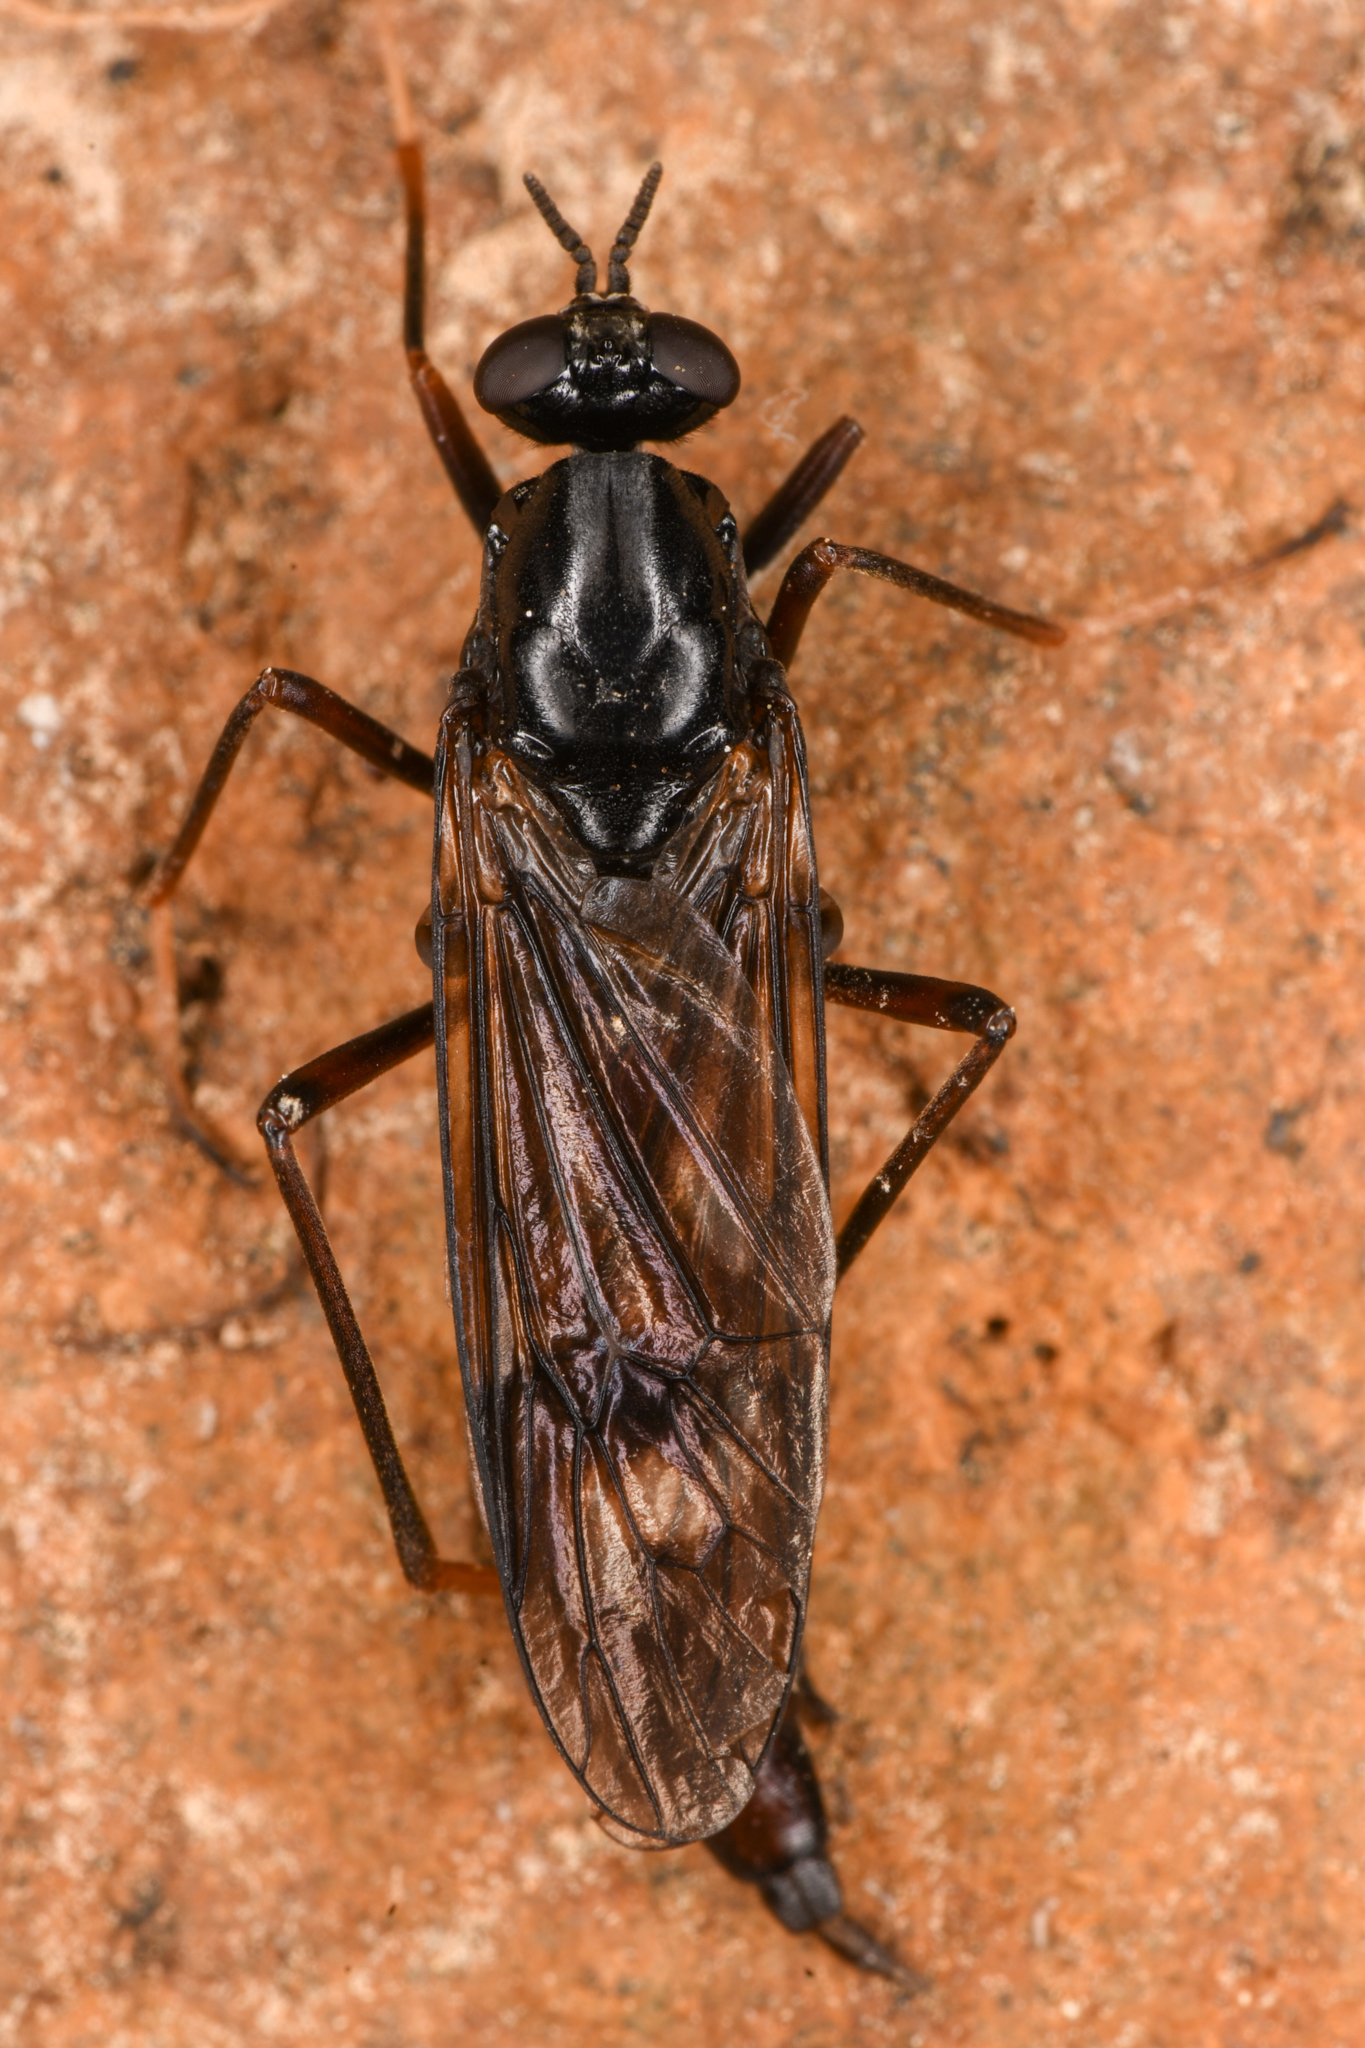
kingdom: Animalia
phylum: Arthropoda
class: Insecta
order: Diptera
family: Xylophagidae
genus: Xylophagus
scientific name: Xylophagus cinctus
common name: Red-belted awl-fly
